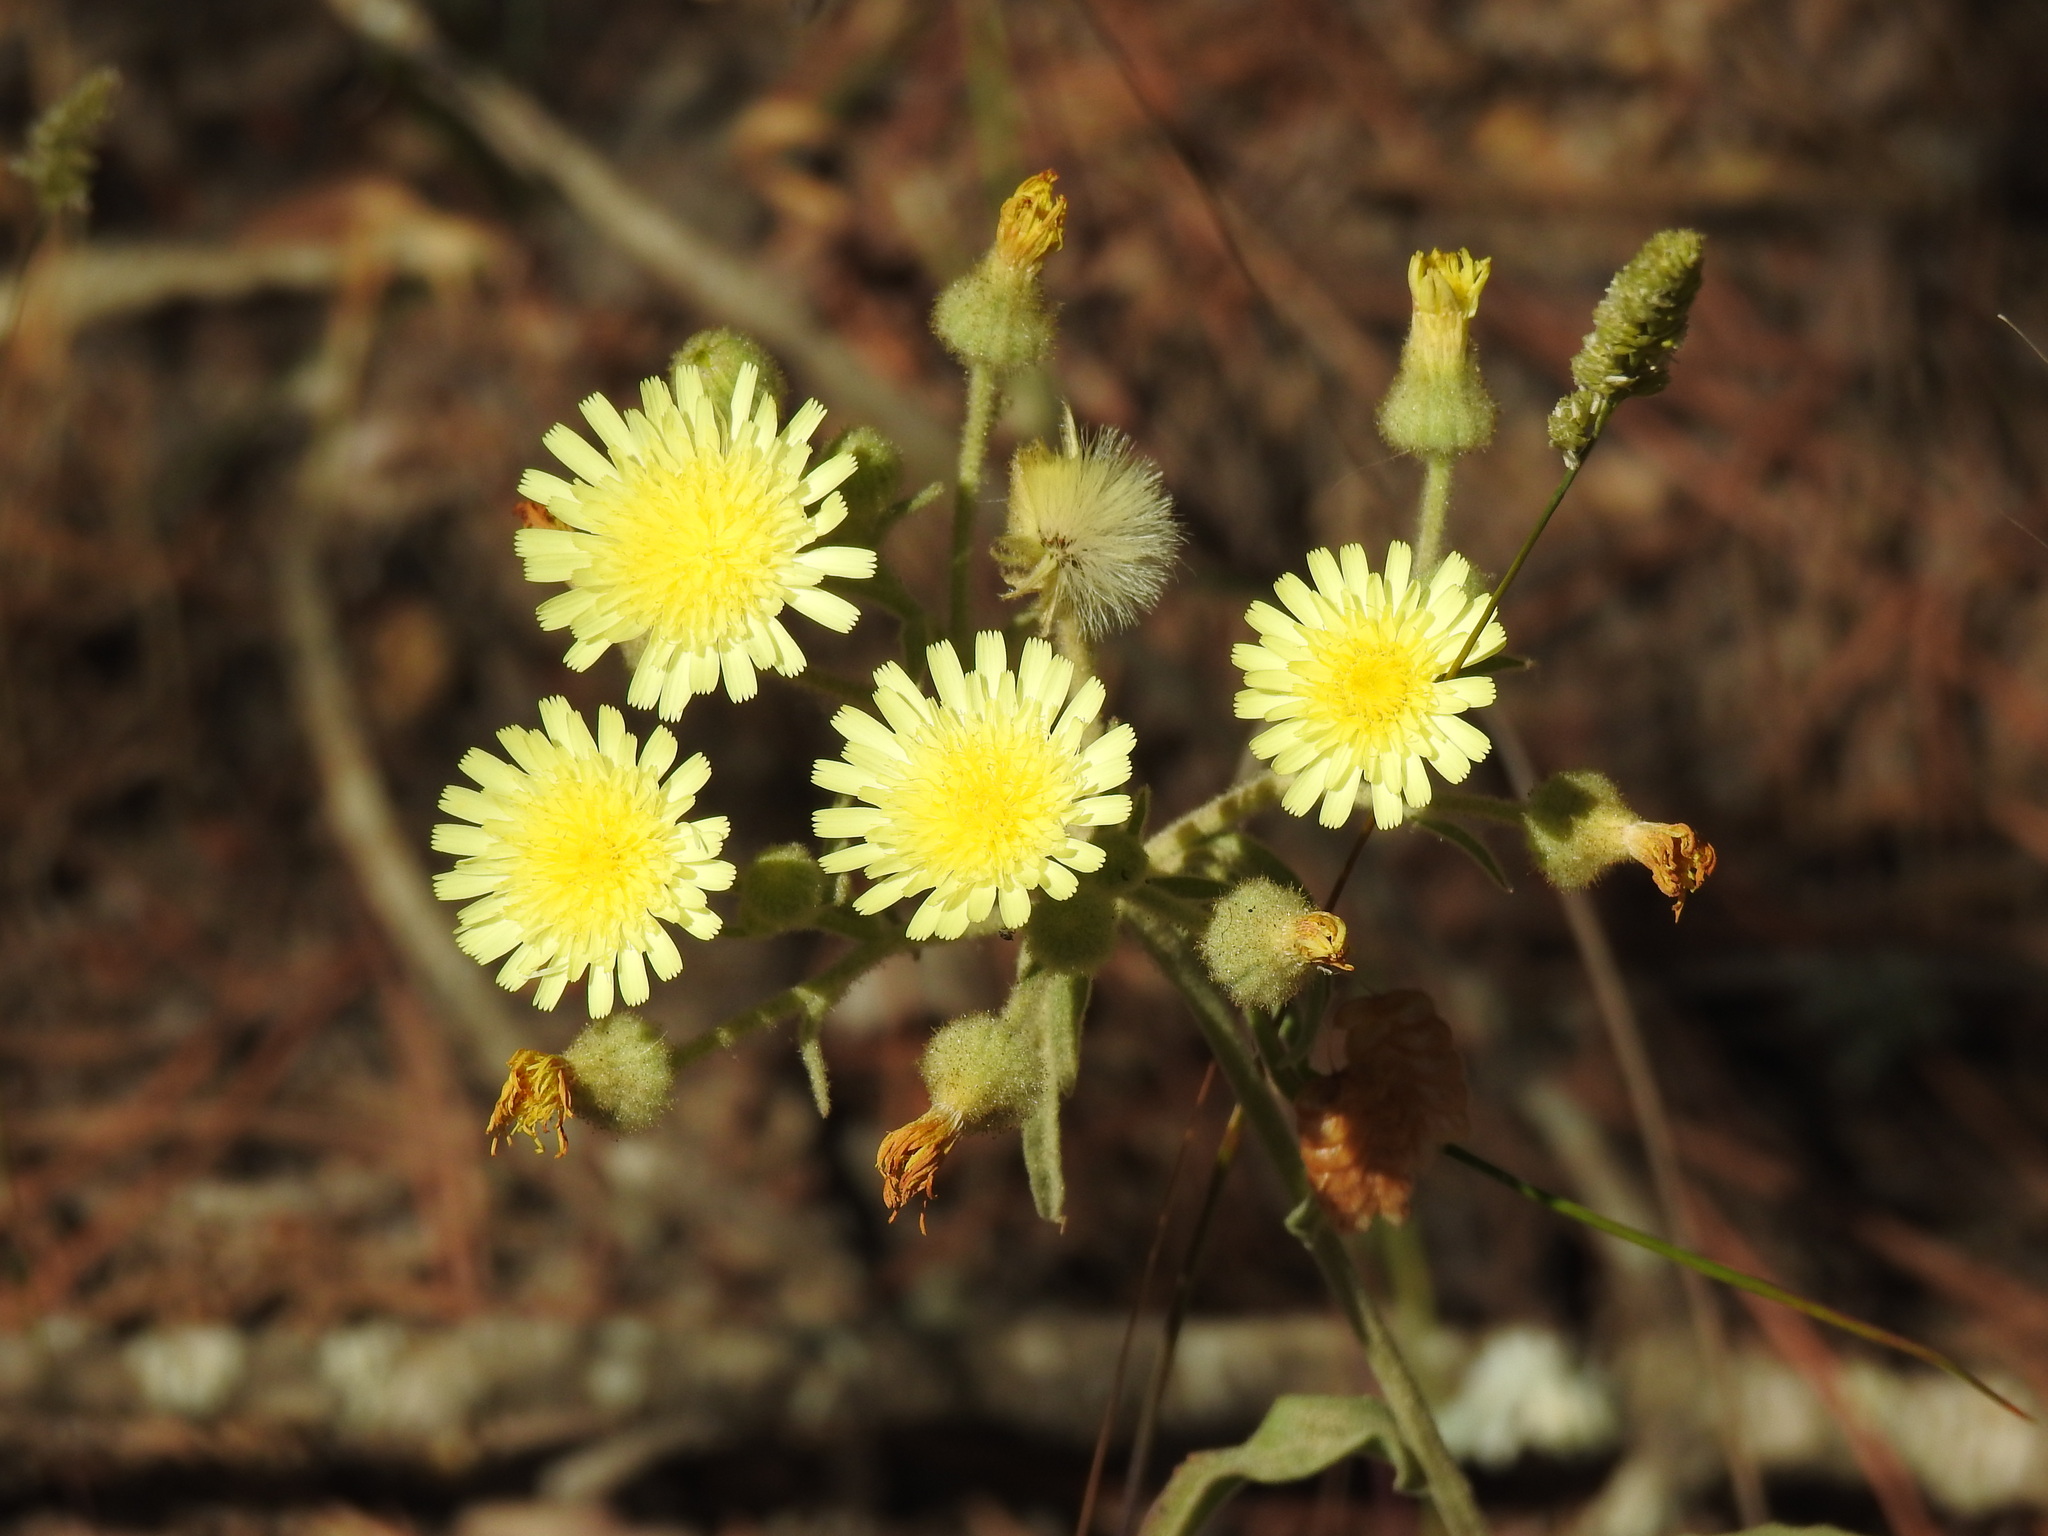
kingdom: Plantae
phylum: Tracheophyta
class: Magnoliopsida
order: Asterales
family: Asteraceae
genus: Andryala
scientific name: Andryala integrifolia
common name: Common andryala
